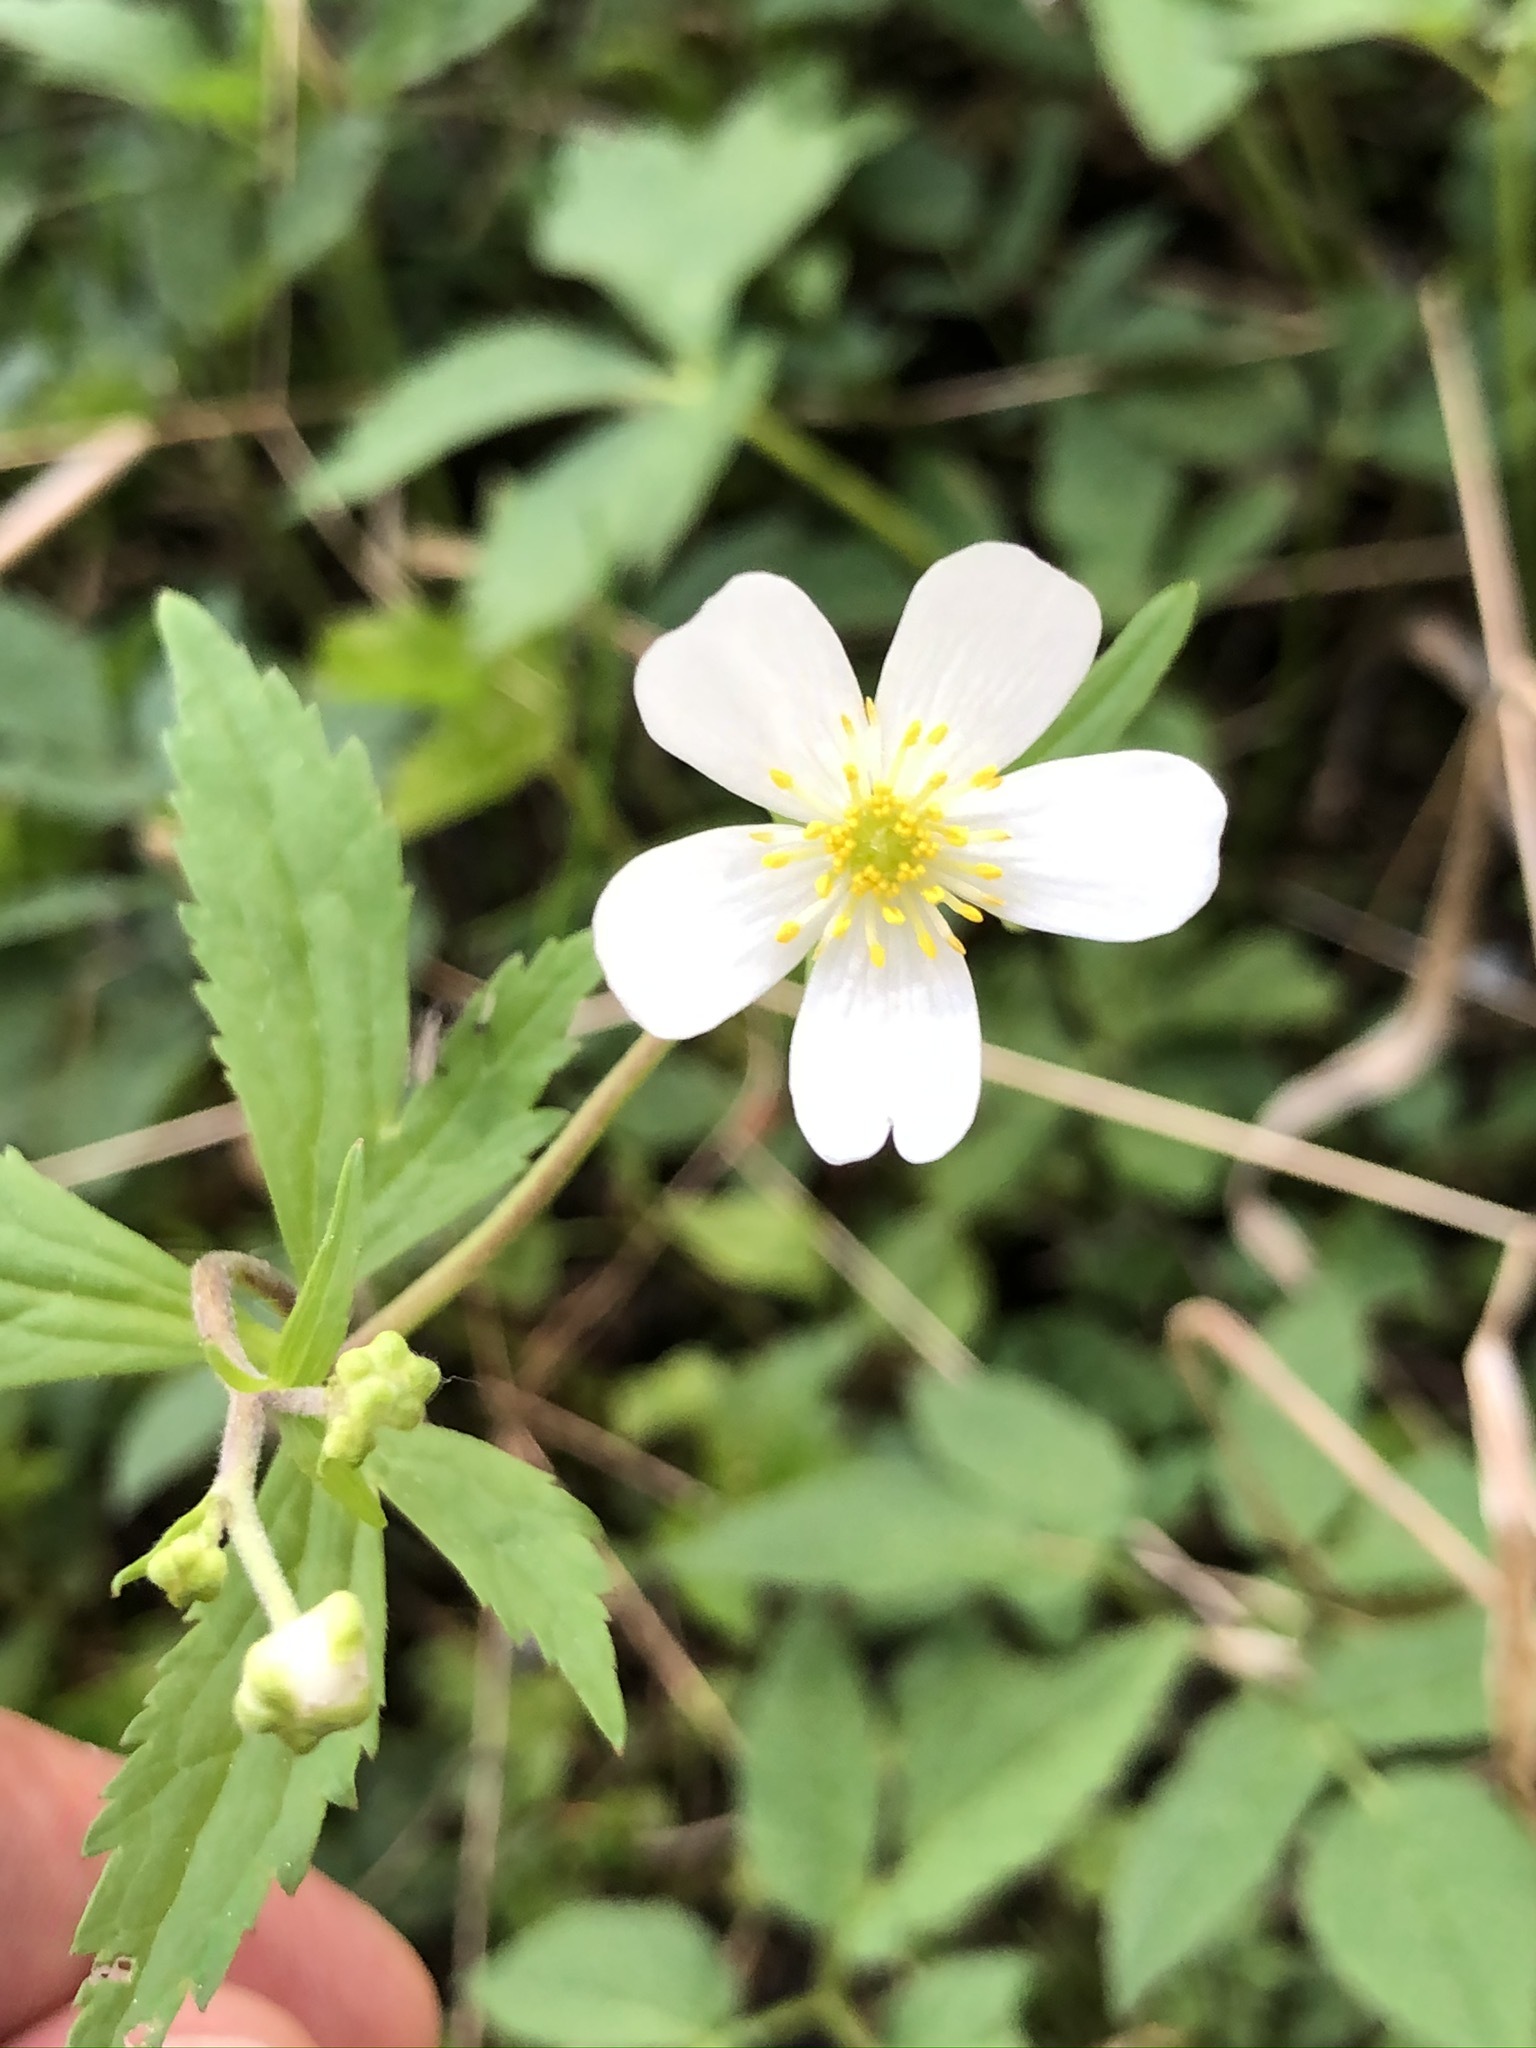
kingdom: Plantae
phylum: Tracheophyta
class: Magnoliopsida
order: Ranunculales
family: Ranunculaceae
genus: Ranunculus
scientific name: Ranunculus aconitifolius
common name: Aconite-leaved buttercup
